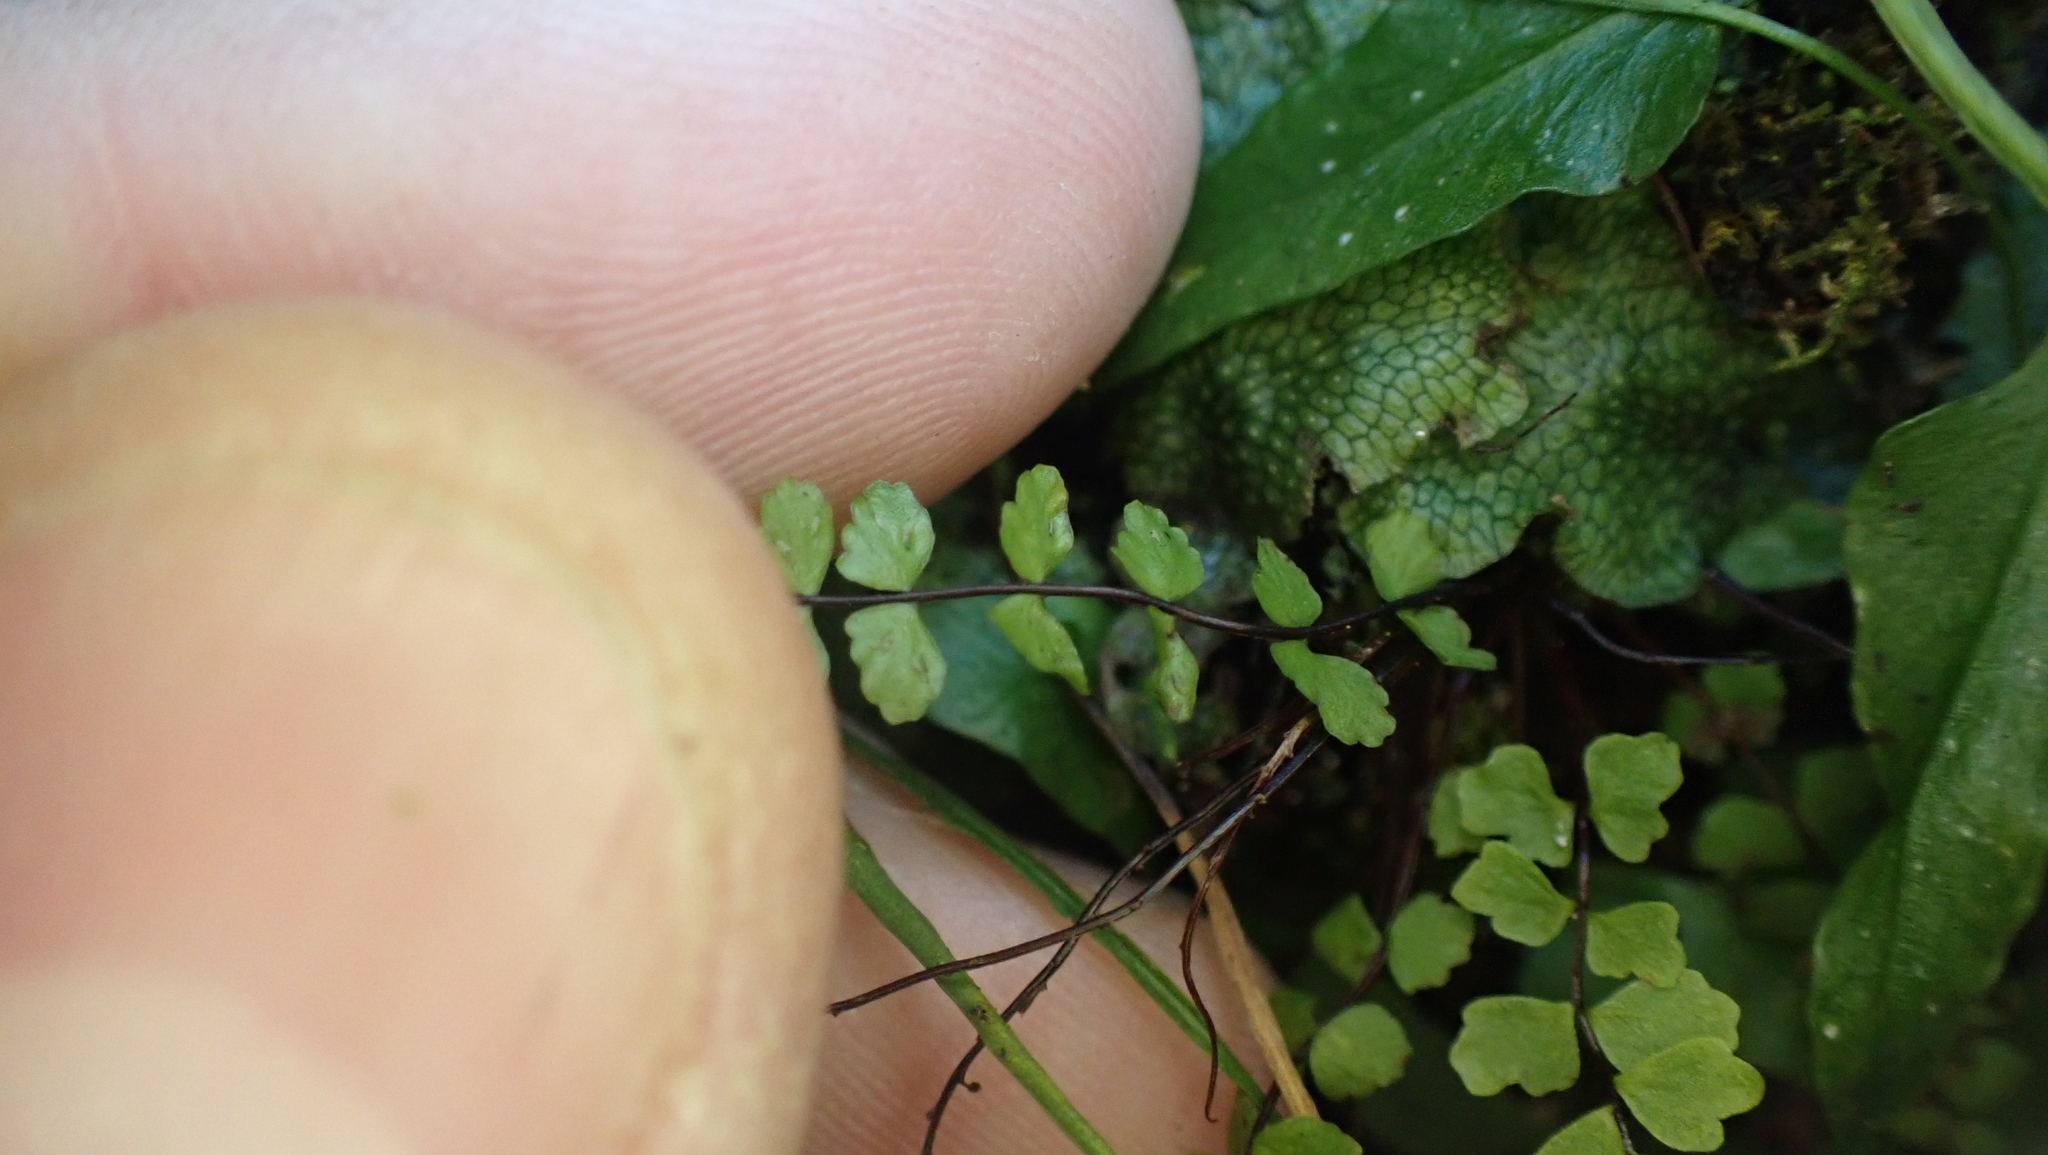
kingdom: Plantae
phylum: Tracheophyta
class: Polypodiopsida
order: Polypodiales
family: Aspleniaceae
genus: Asplenium
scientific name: Asplenium trichomanes
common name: Maidenhair spleenwort
